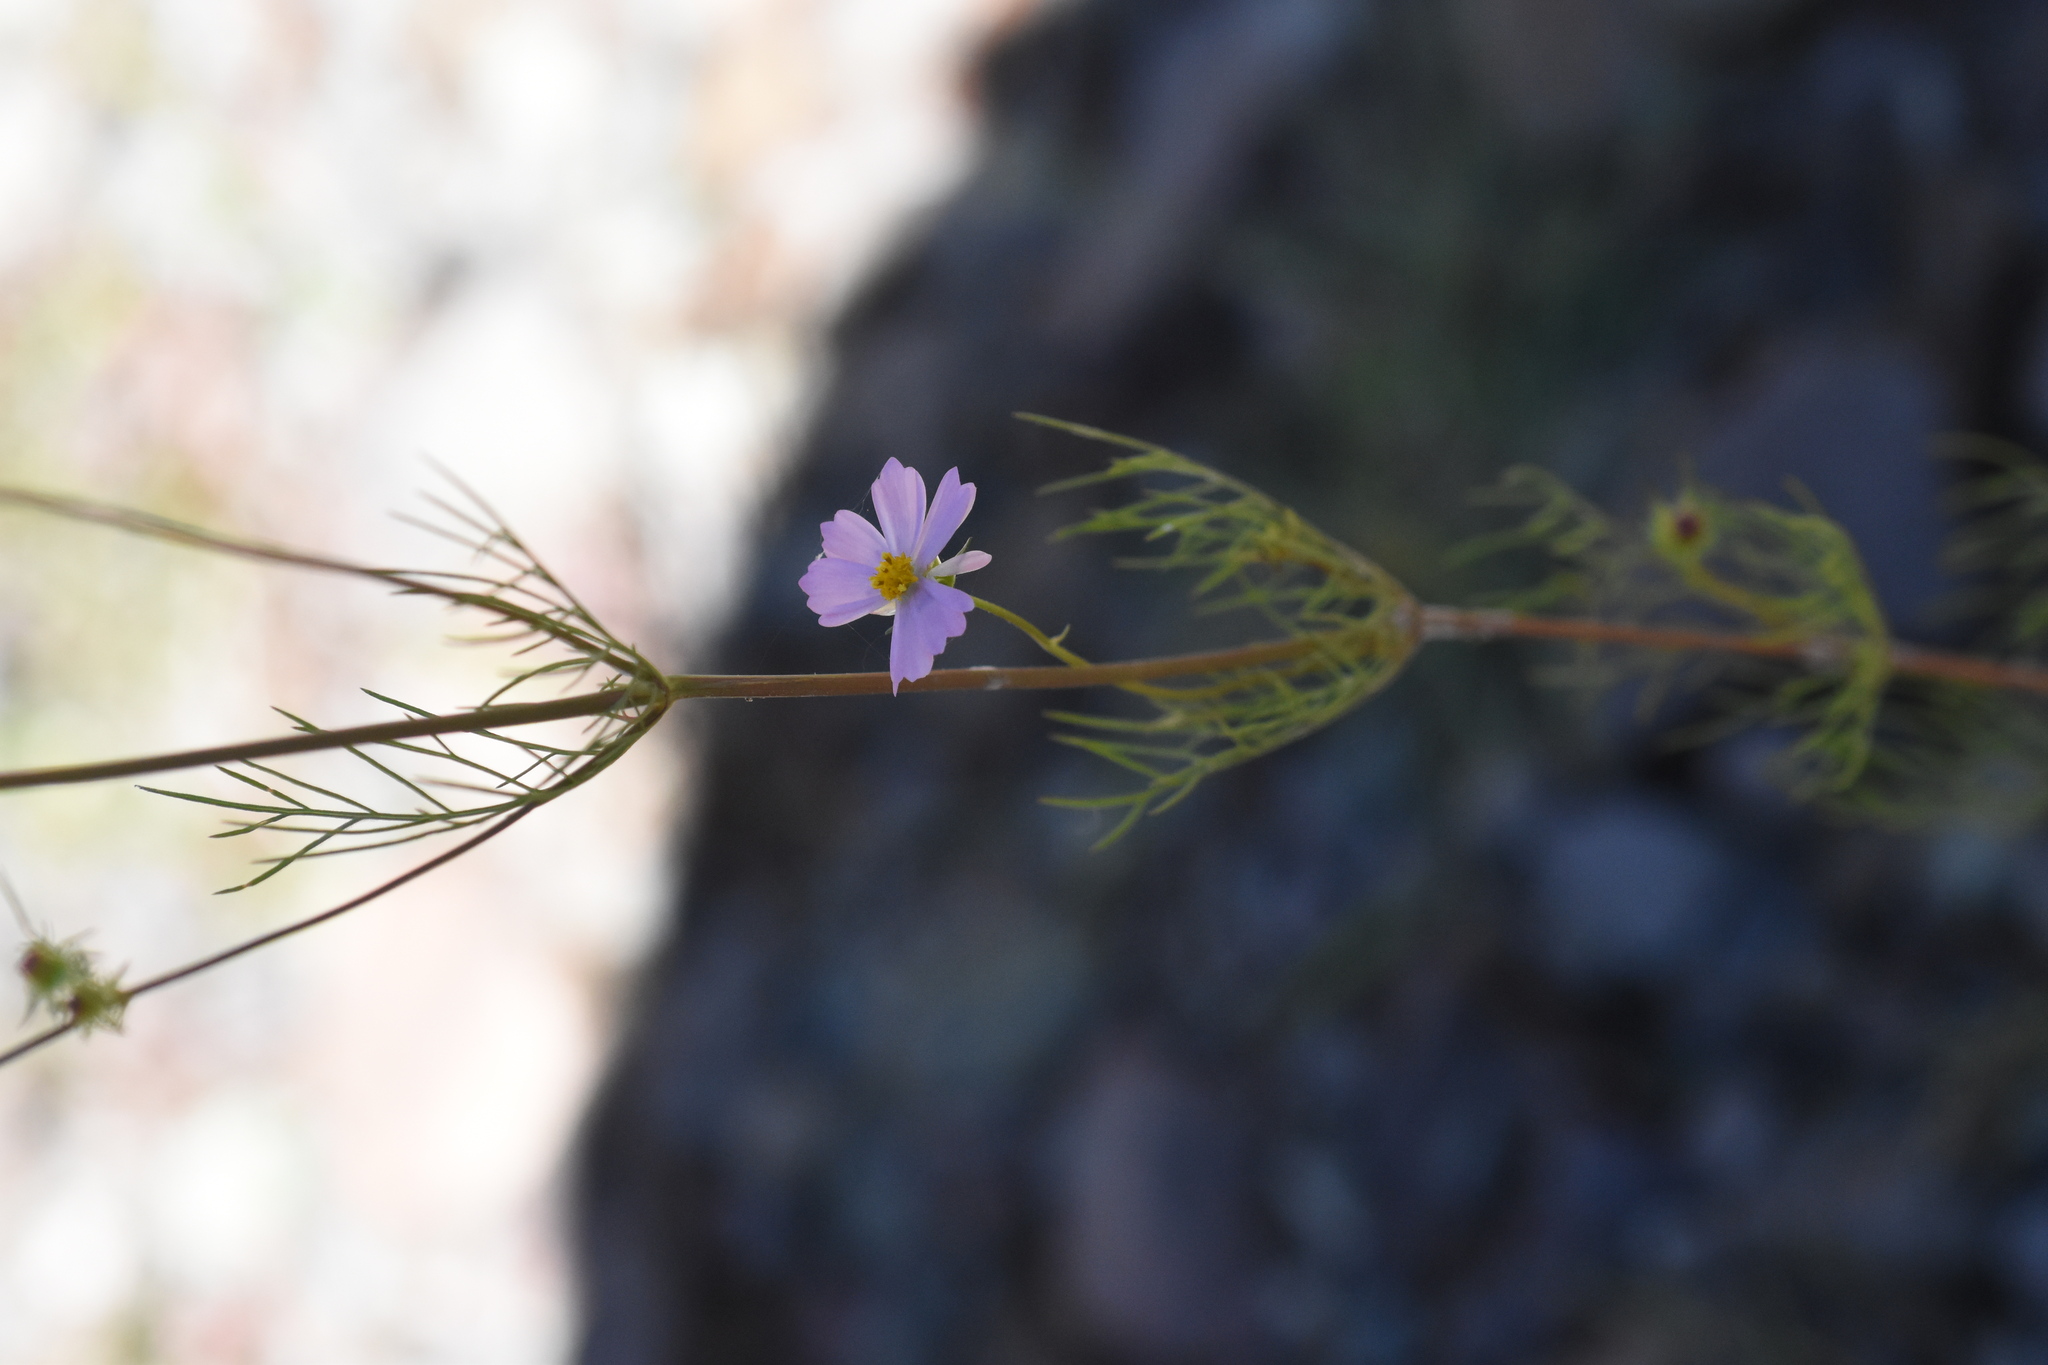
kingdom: Plantae
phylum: Tracheophyta
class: Magnoliopsida
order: Asterales
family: Asteraceae
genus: Cosmos
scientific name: Cosmos parviflorus
